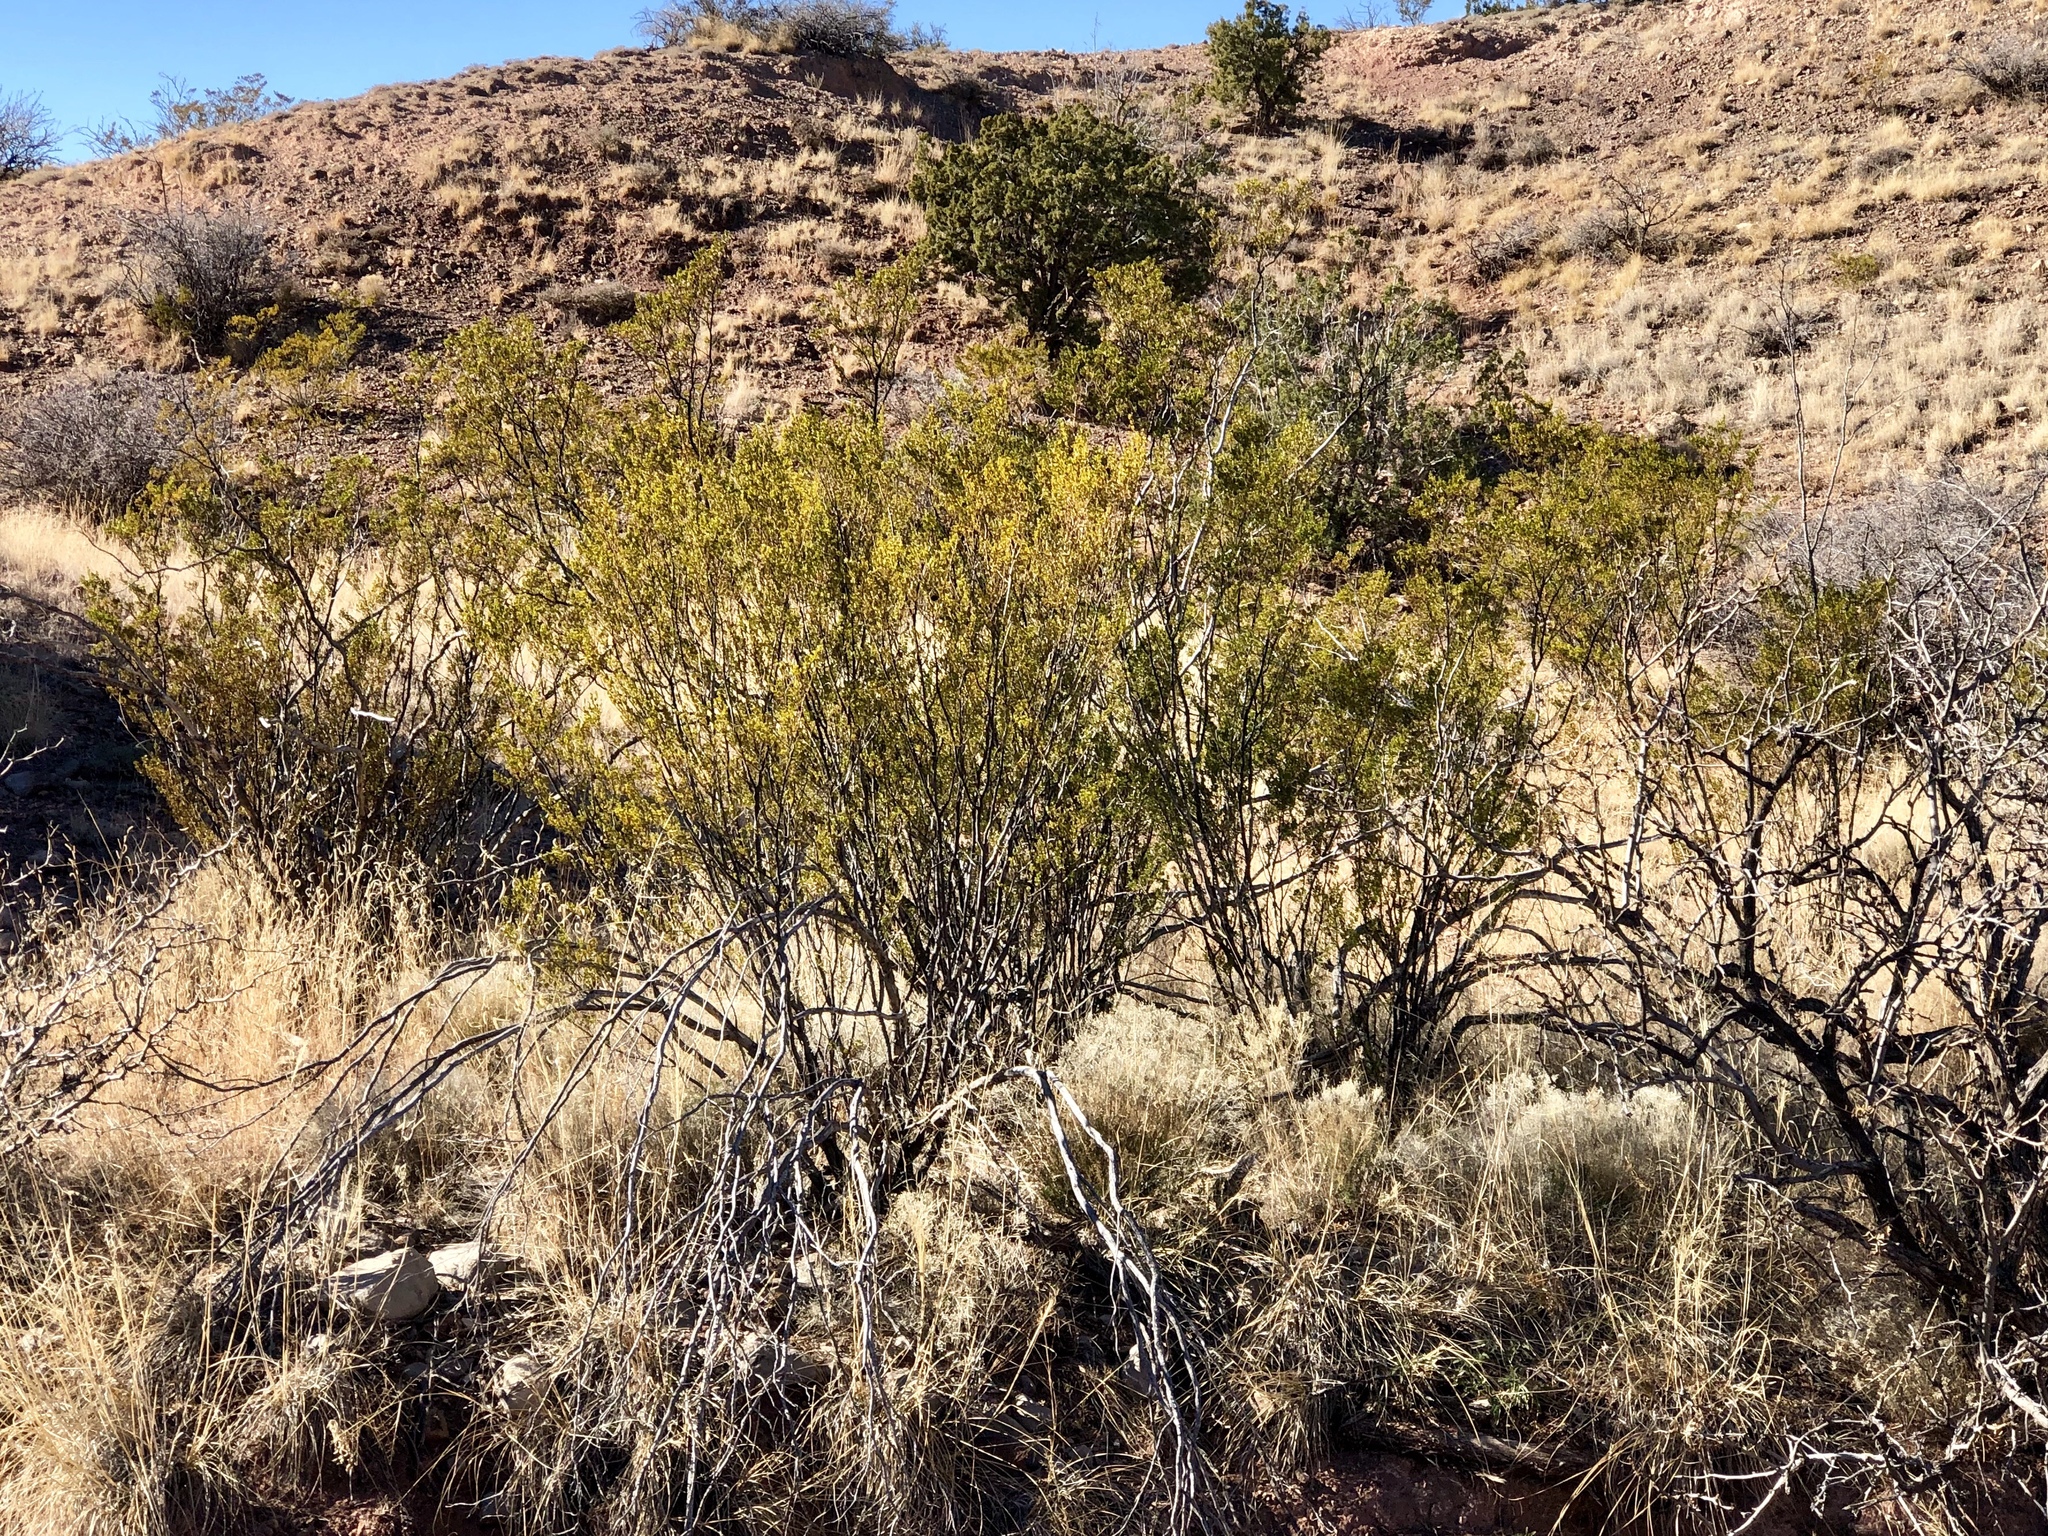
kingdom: Plantae
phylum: Tracheophyta
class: Magnoliopsida
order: Zygophyllales
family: Zygophyllaceae
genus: Larrea
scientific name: Larrea tridentata
